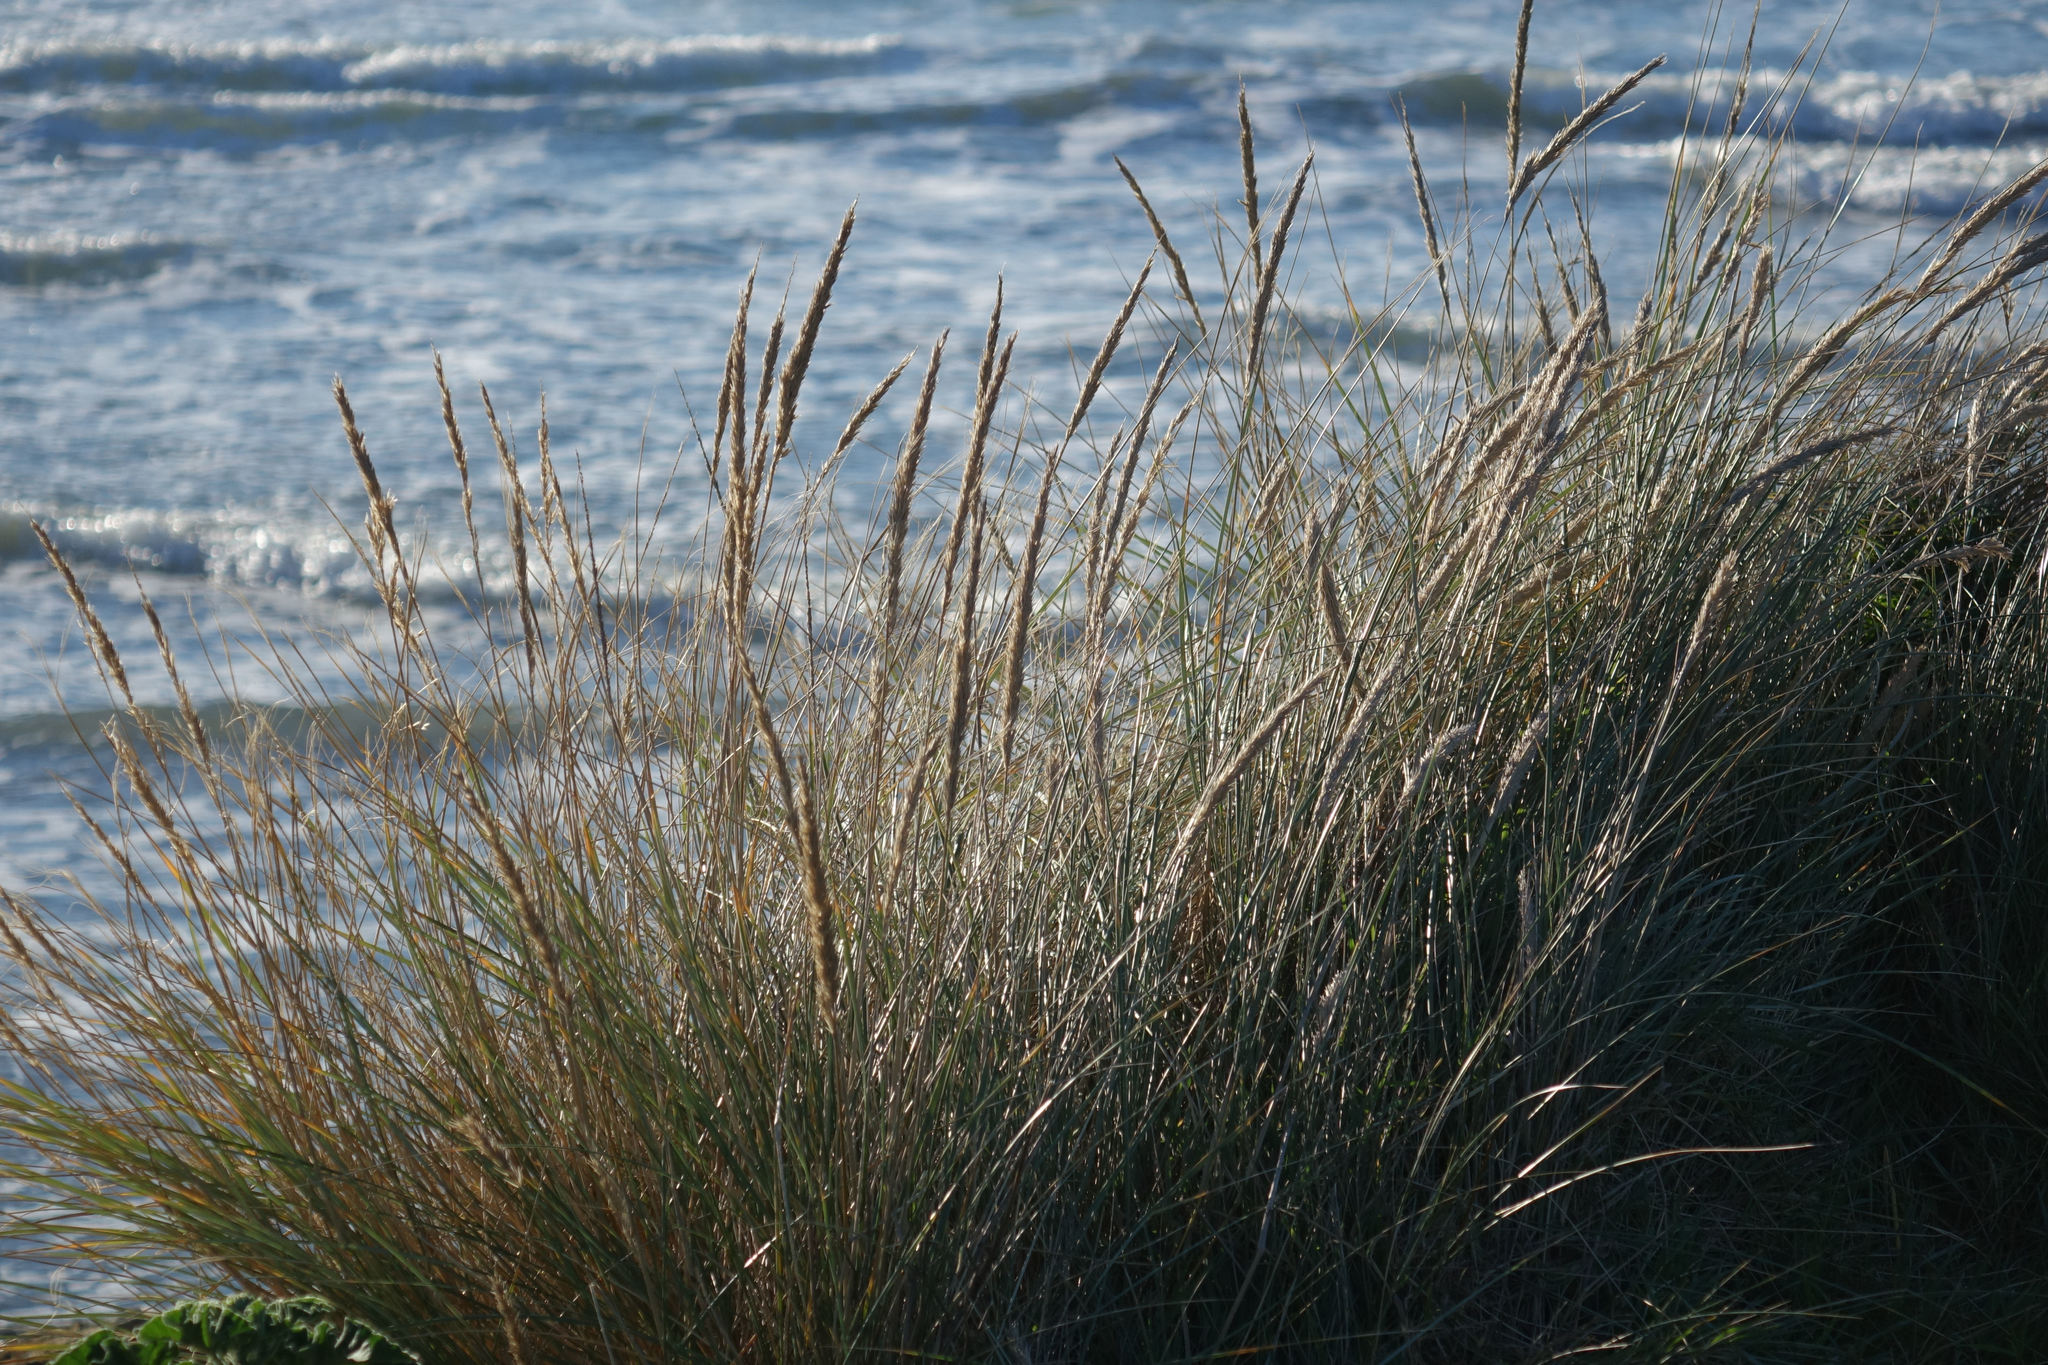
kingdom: Plantae
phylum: Tracheophyta
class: Liliopsida
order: Poales
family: Poaceae
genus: Calamagrostis
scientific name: Calamagrostis arenaria
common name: European beachgrass
